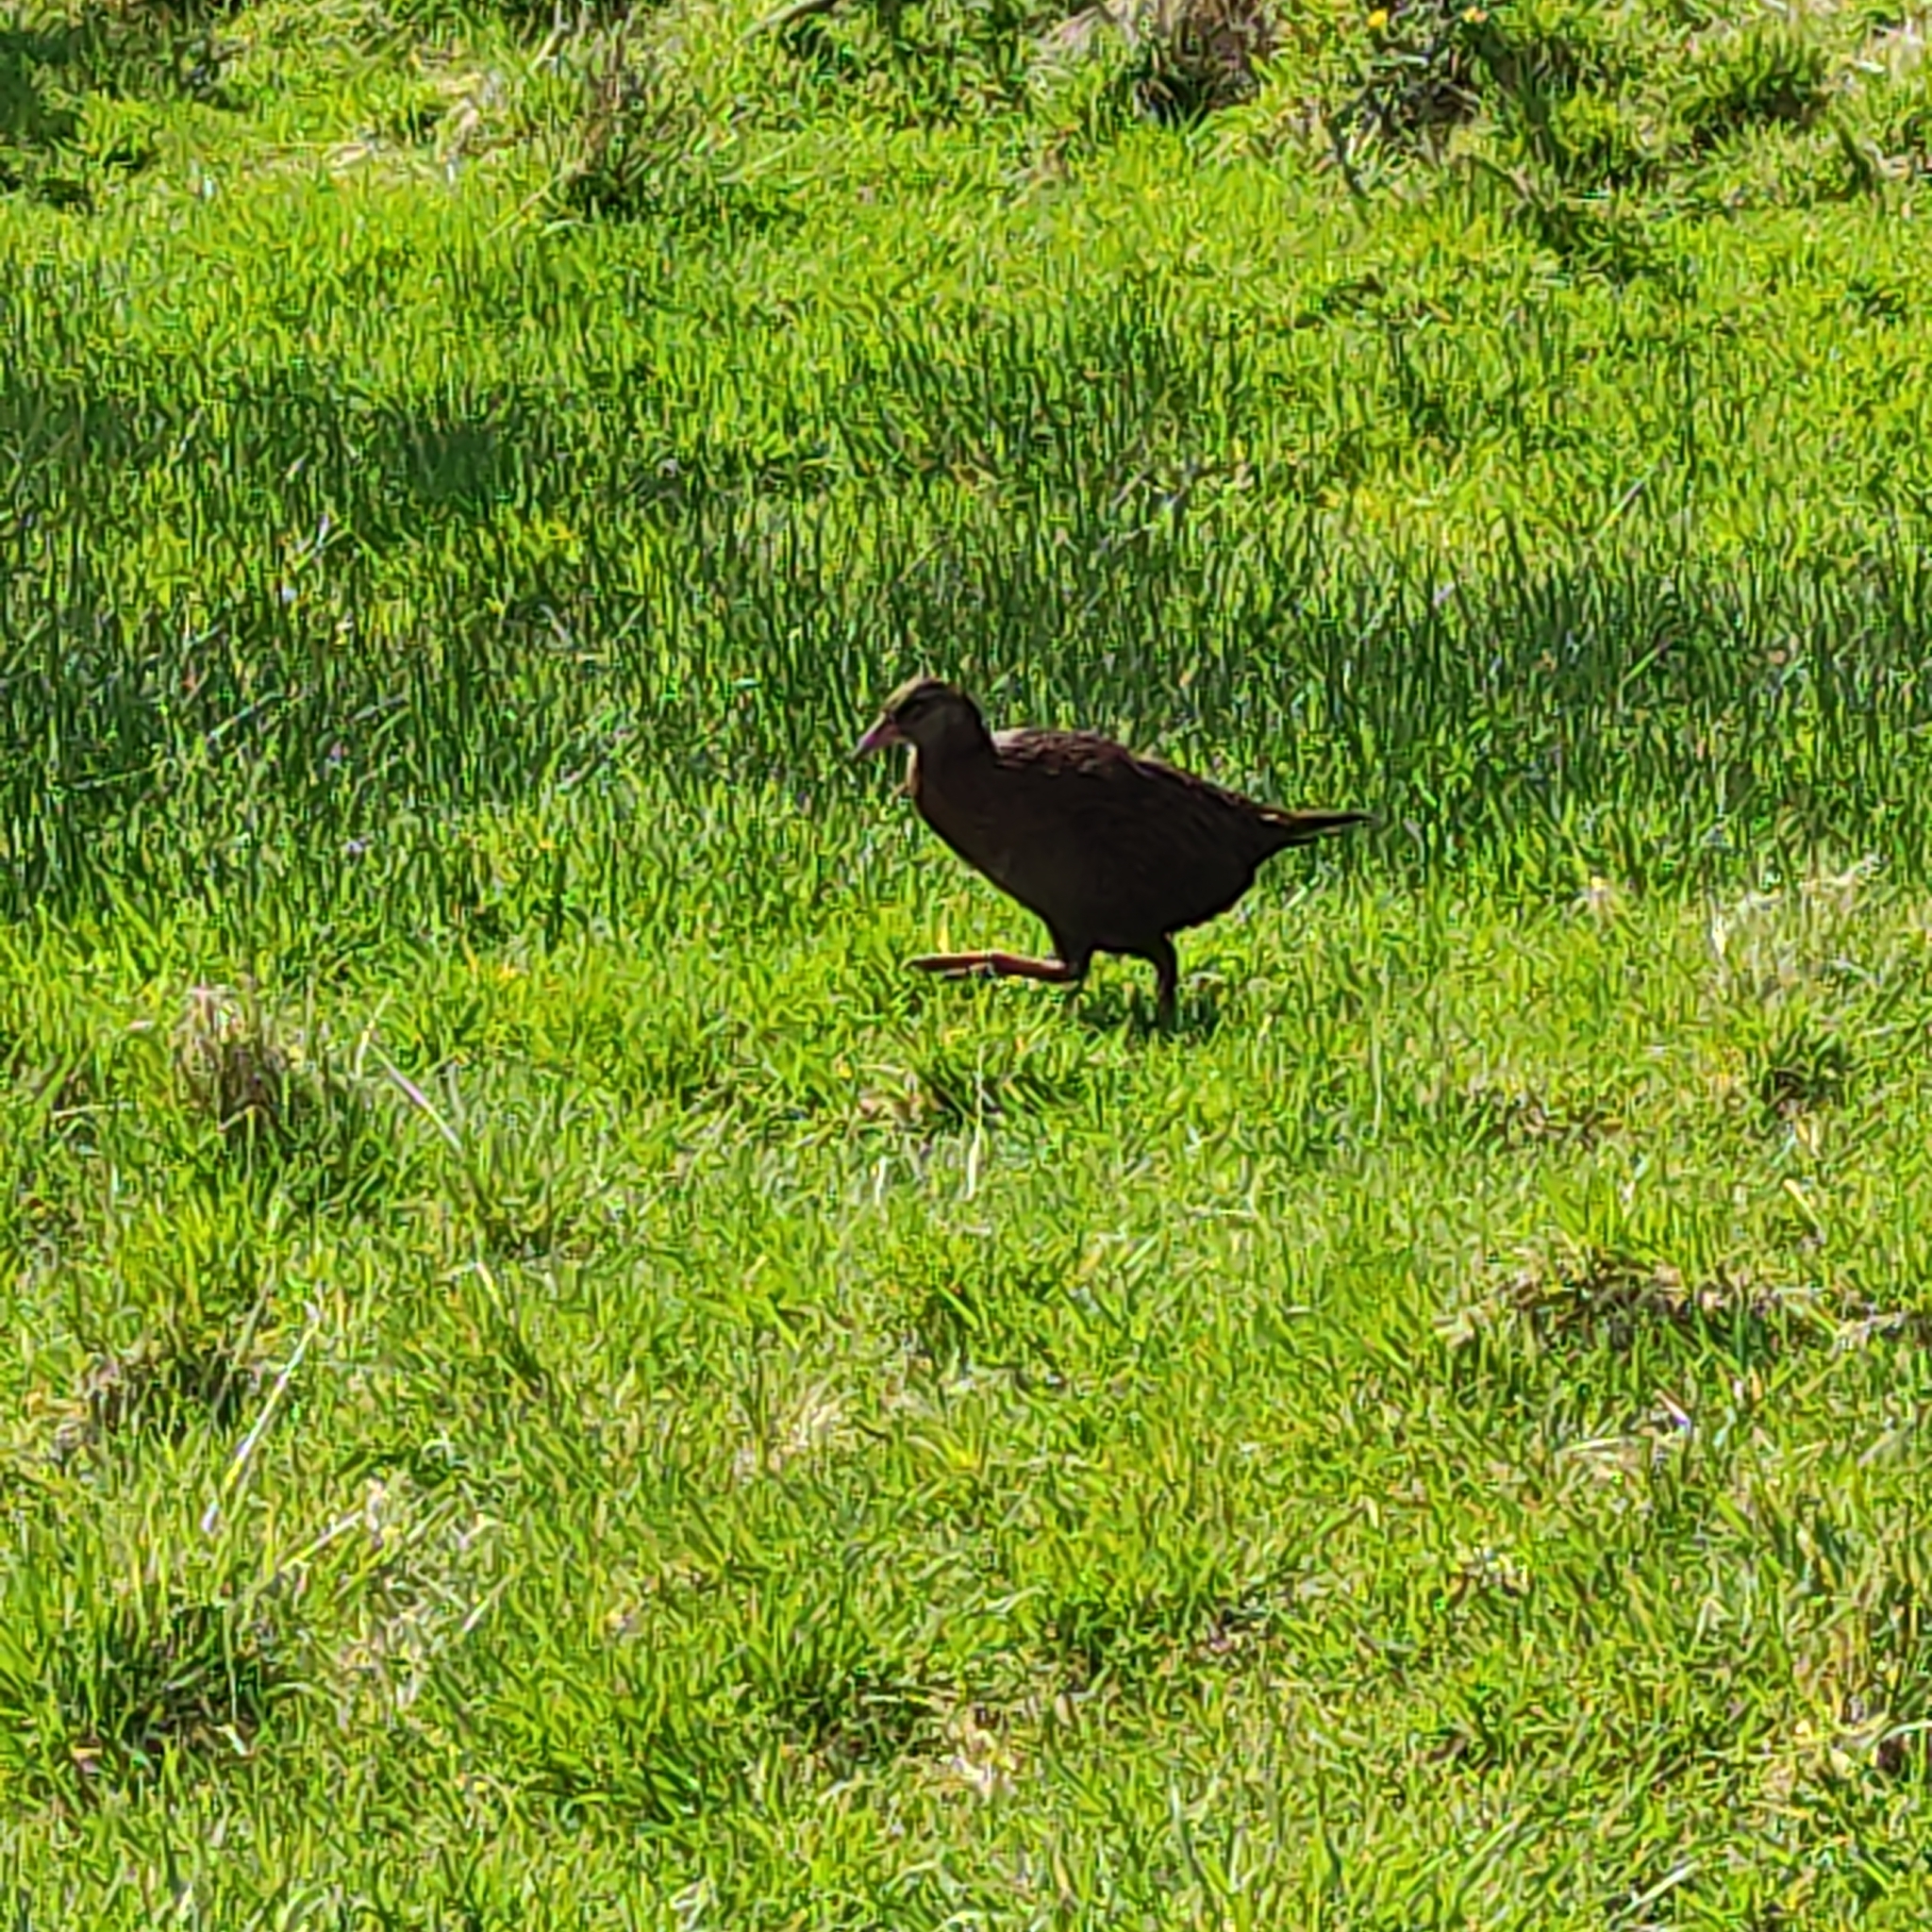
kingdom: Animalia
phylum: Chordata
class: Aves
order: Gruiformes
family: Rallidae
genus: Gallirallus
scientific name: Gallirallus australis
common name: Weka
